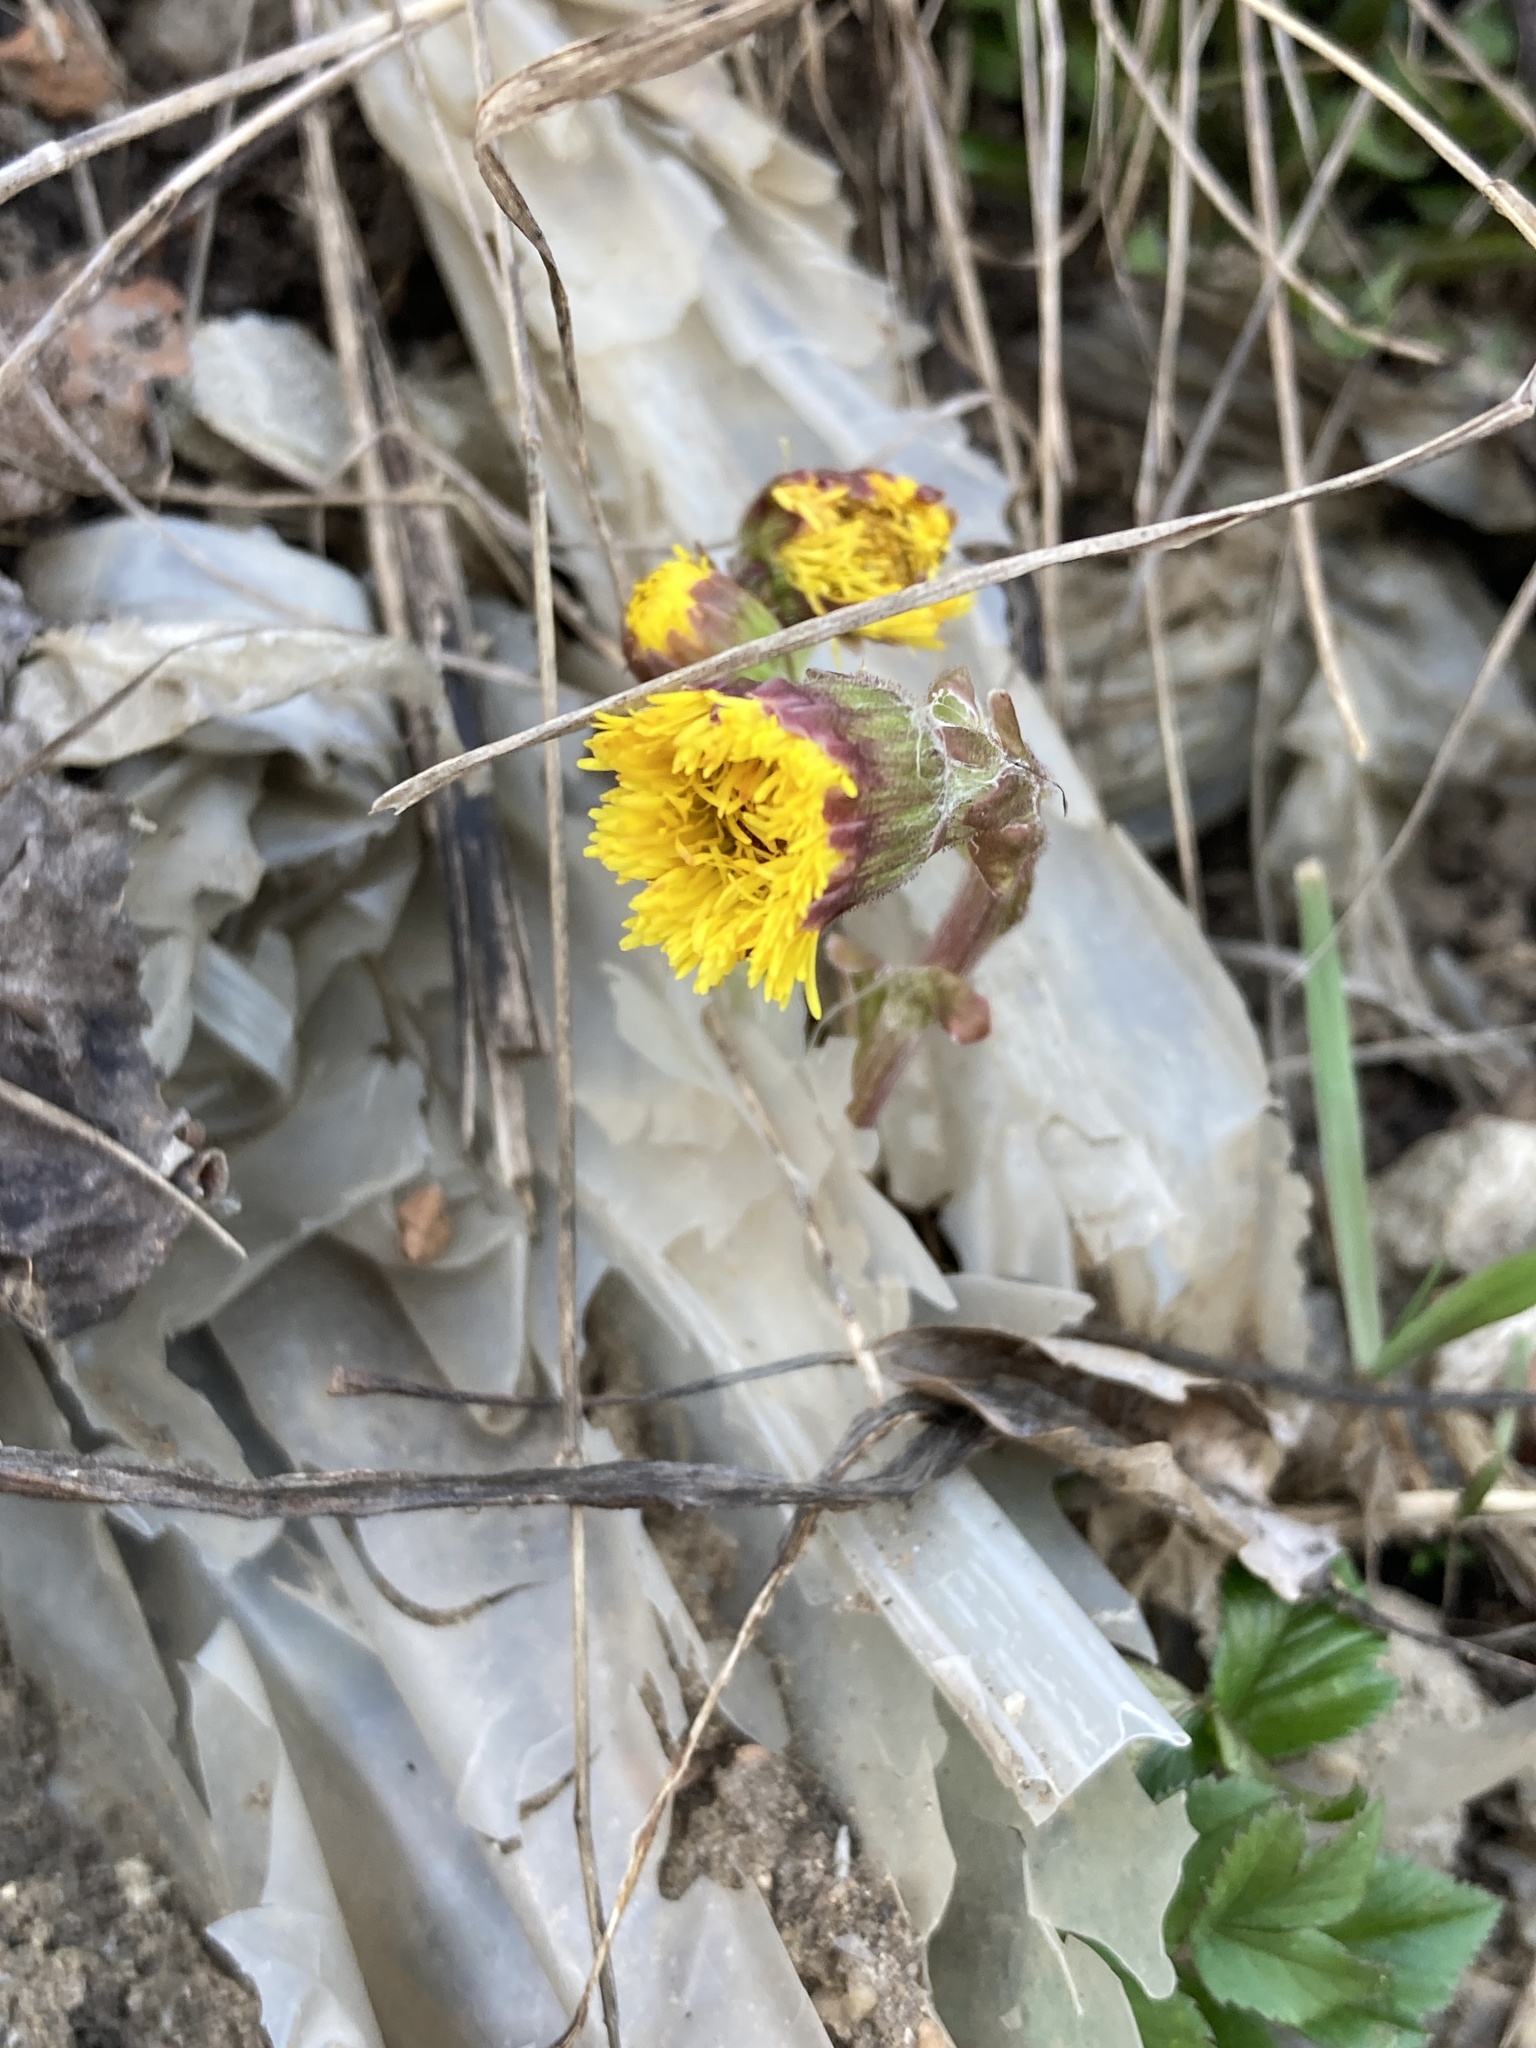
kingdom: Plantae
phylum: Tracheophyta
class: Magnoliopsida
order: Asterales
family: Asteraceae
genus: Tussilago
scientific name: Tussilago farfara
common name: Coltsfoot
